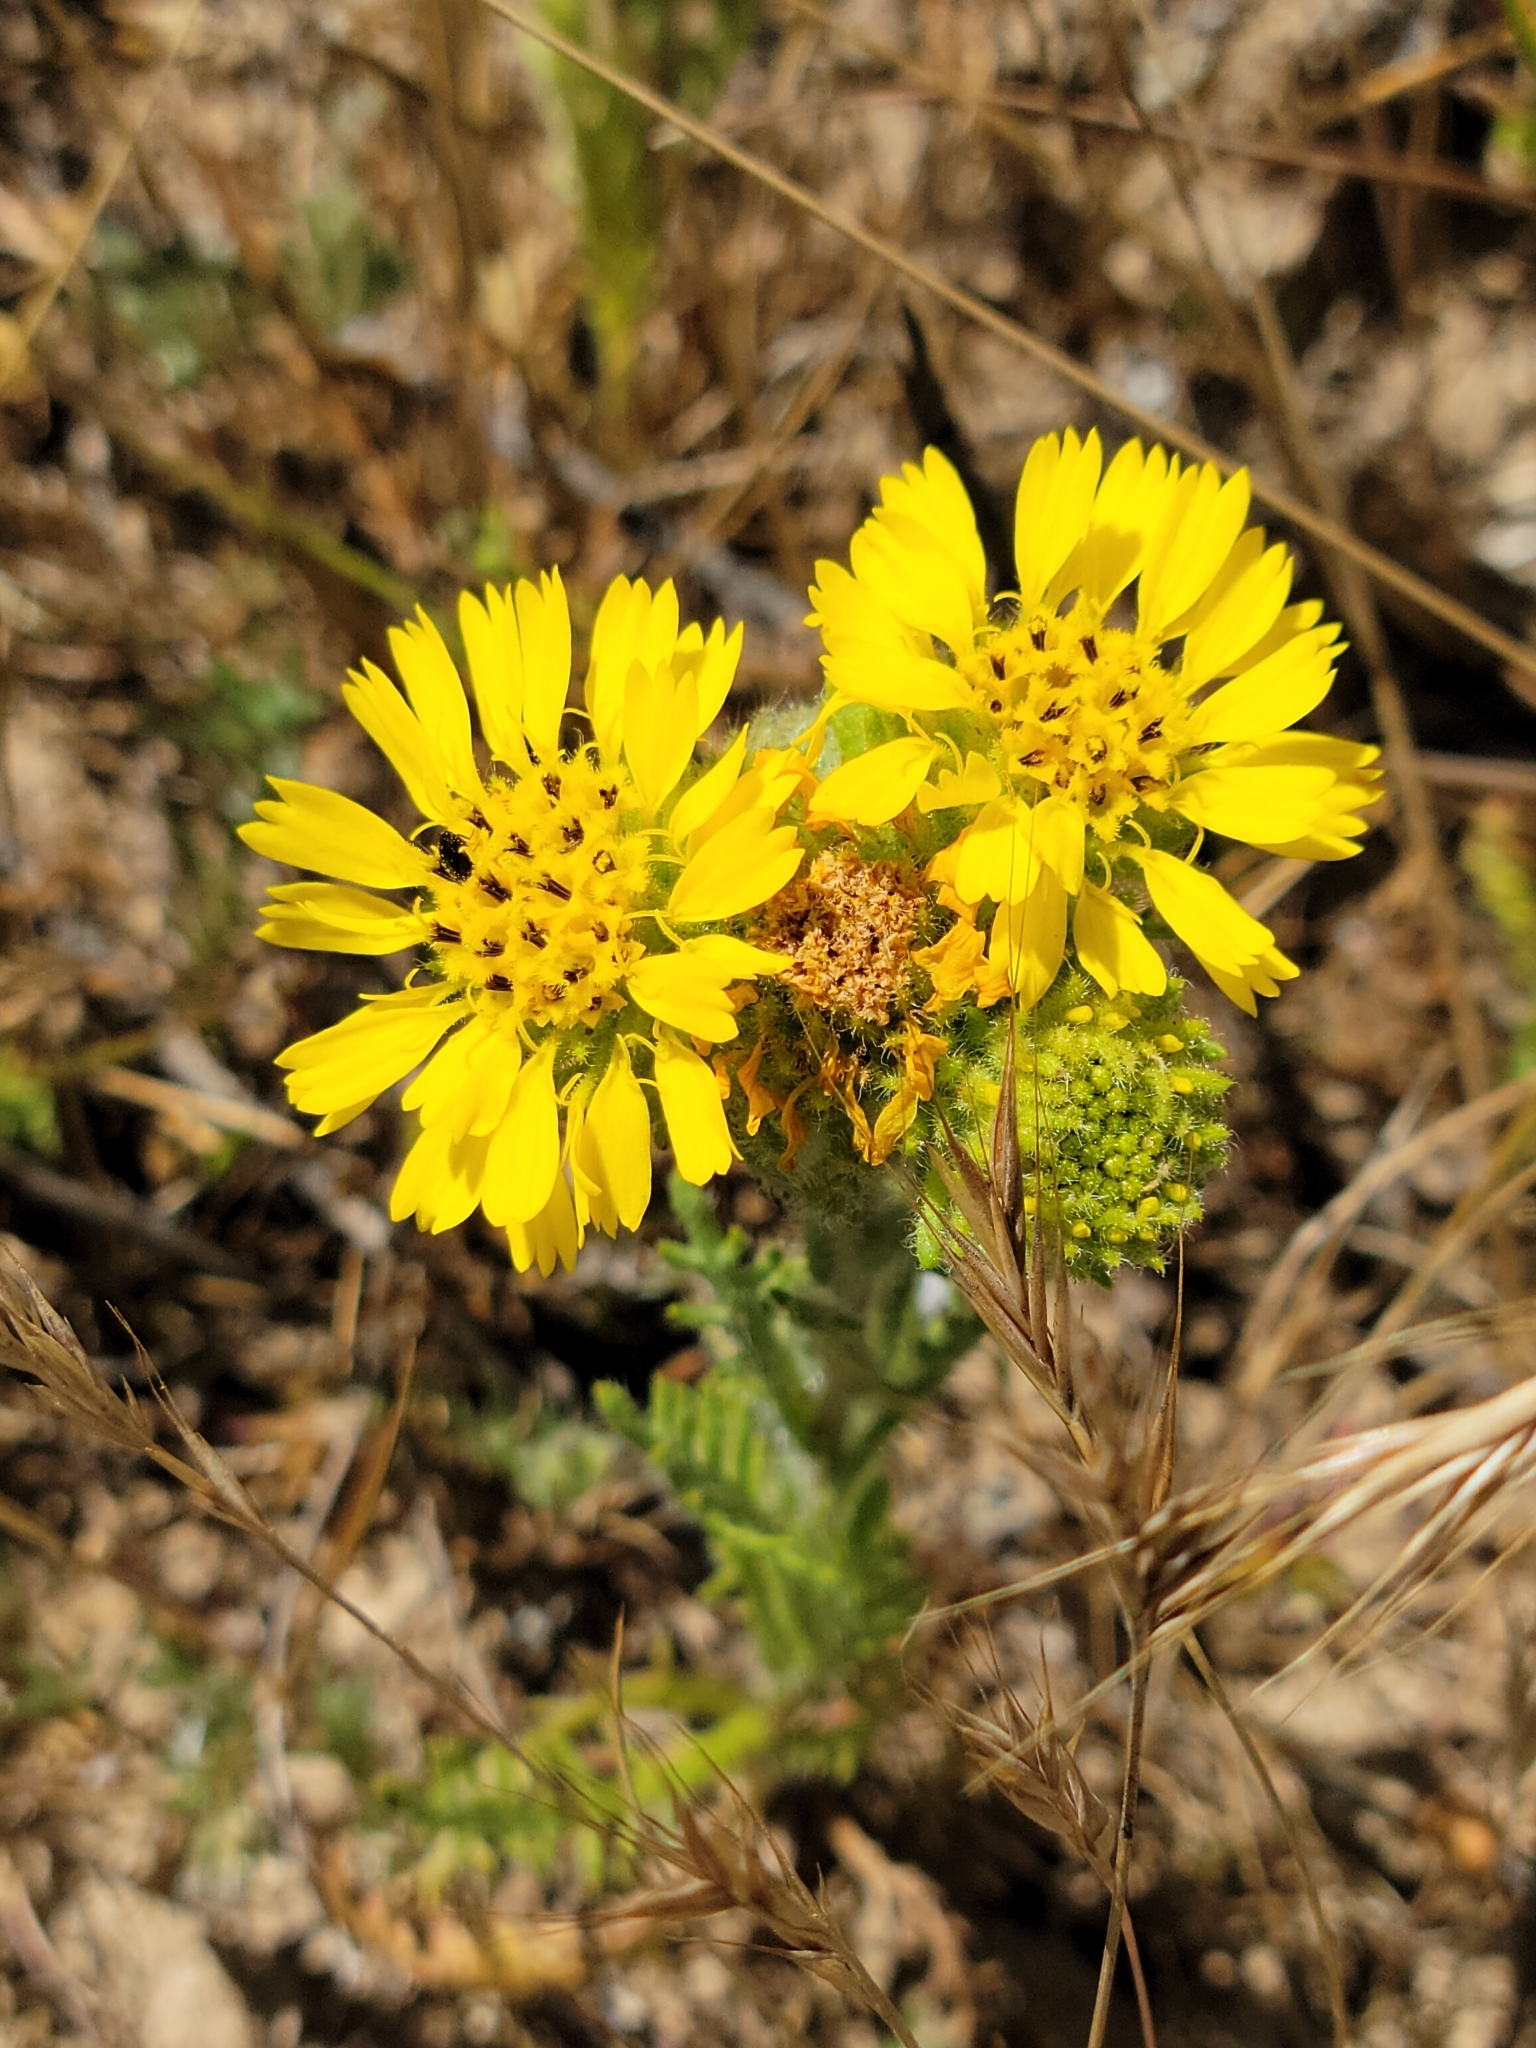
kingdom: Plantae
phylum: Tracheophyta
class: Magnoliopsida
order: Asterales
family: Asteraceae
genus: Deinandra
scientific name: Deinandra corymbosa
